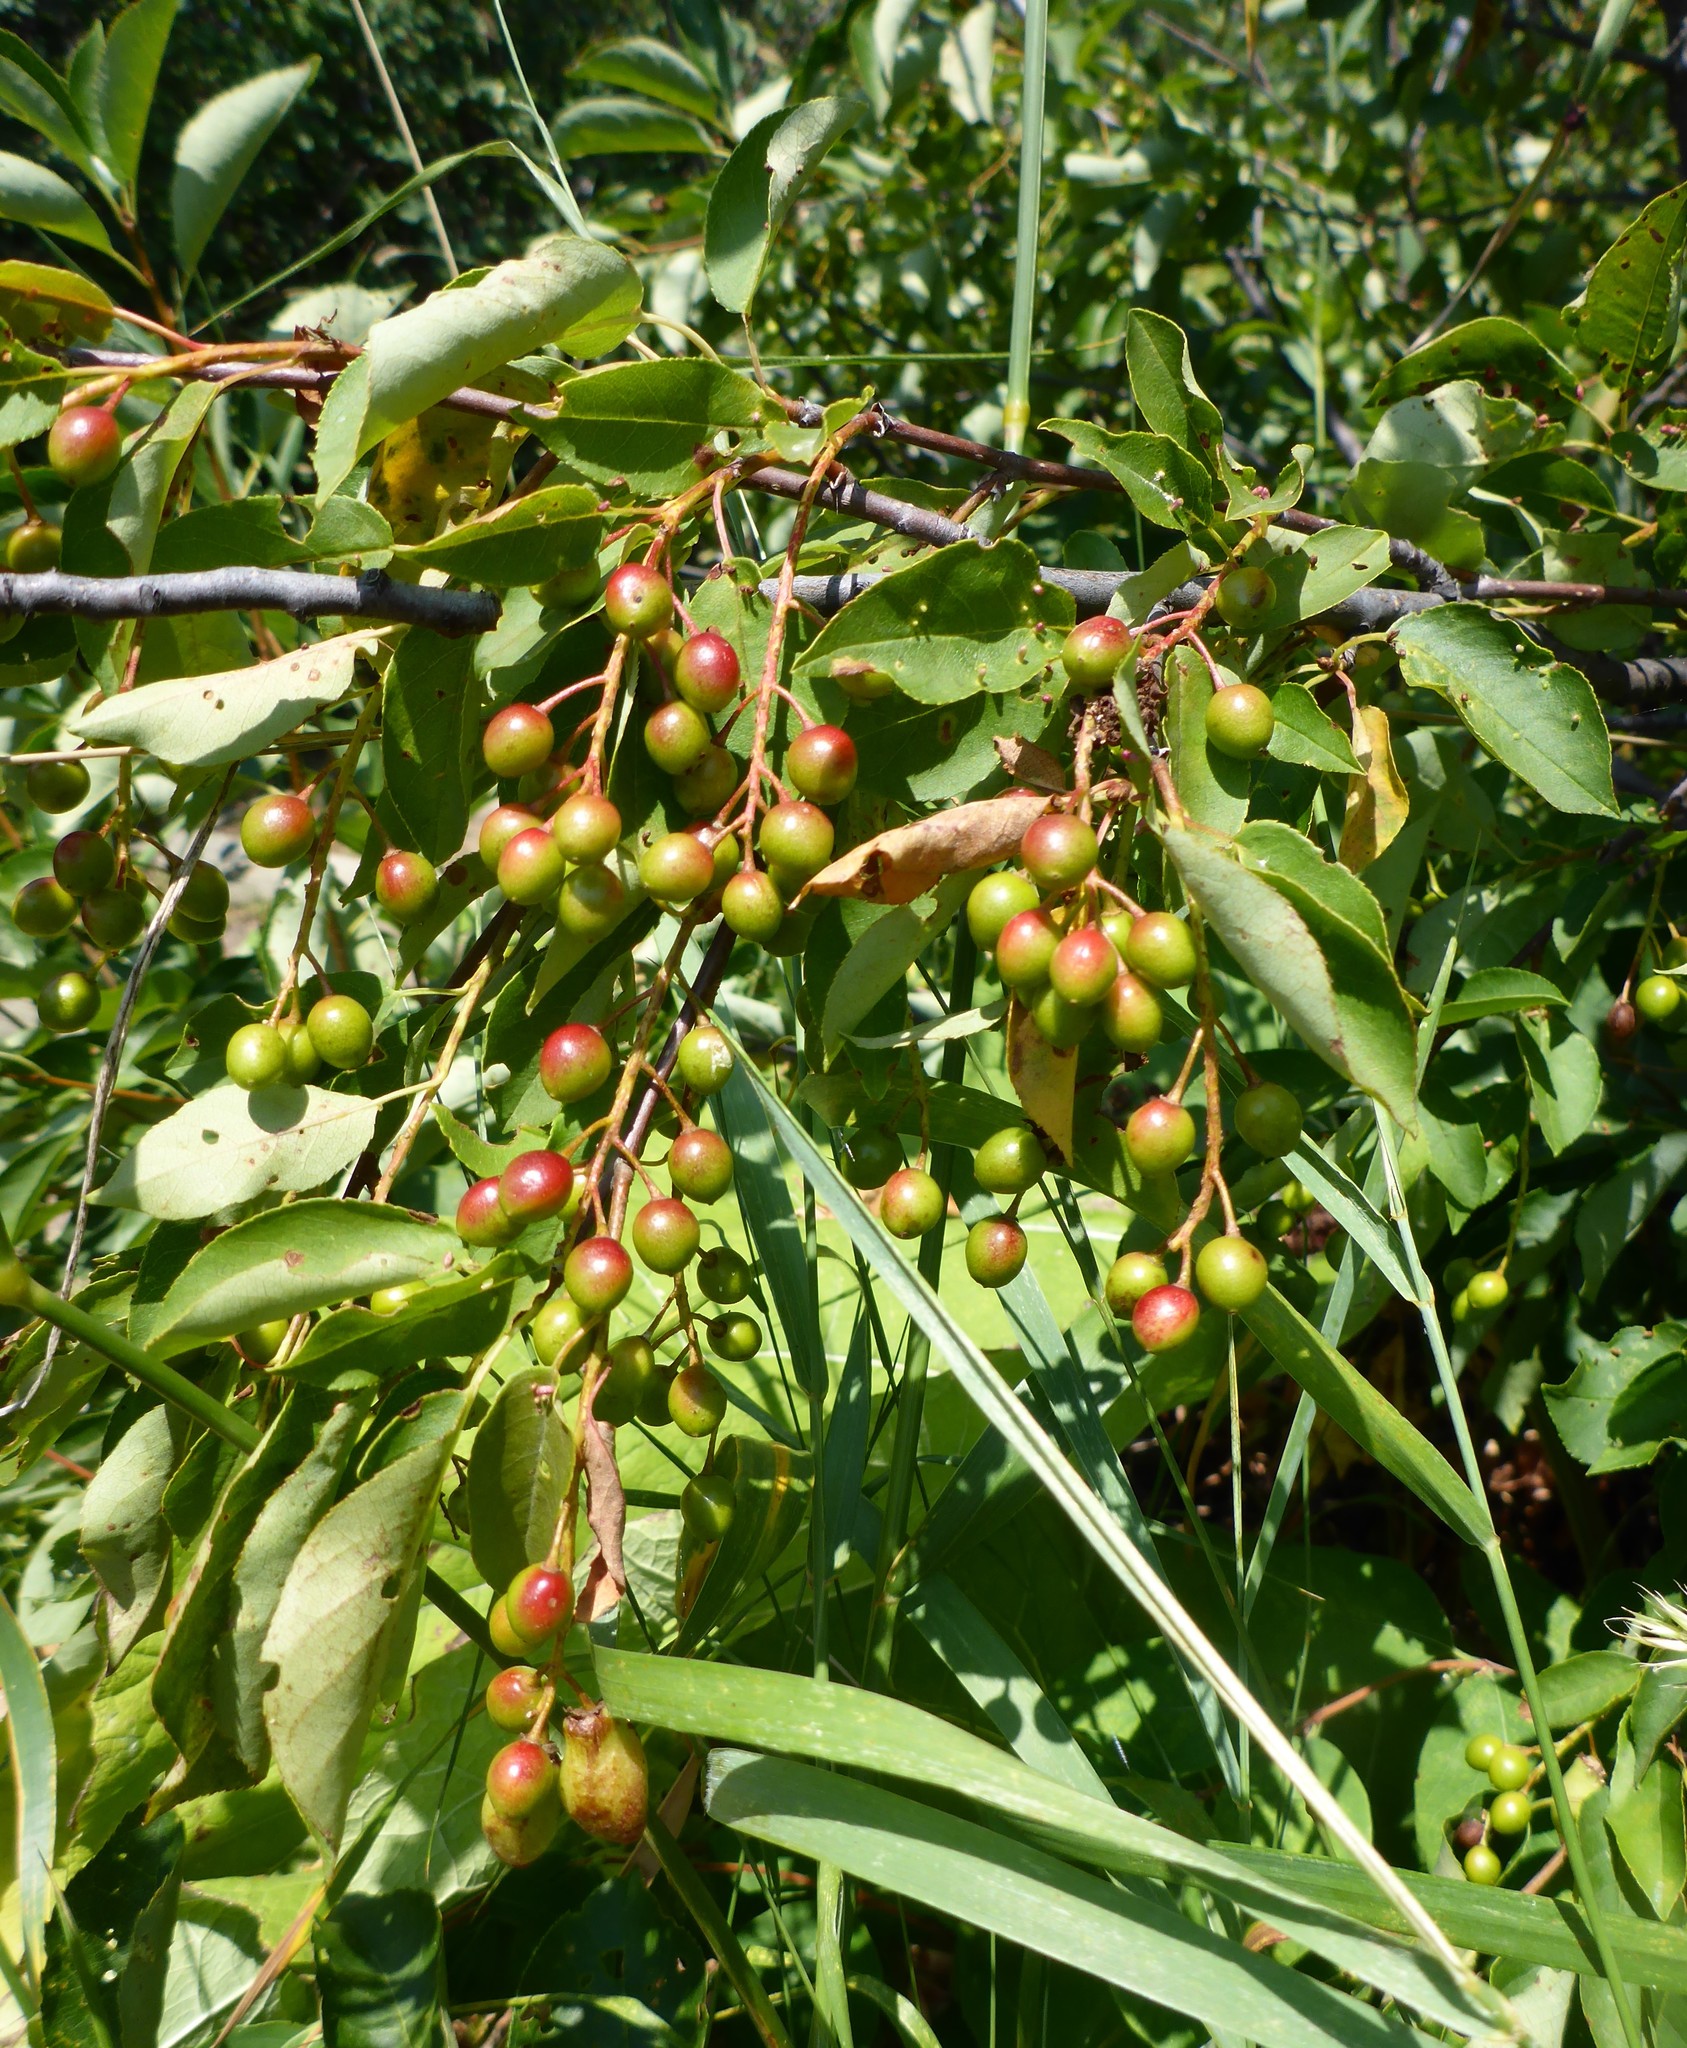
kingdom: Plantae
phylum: Tracheophyta
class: Magnoliopsida
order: Rosales
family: Rosaceae
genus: Prunus
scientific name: Prunus virginiana
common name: Chokecherry
